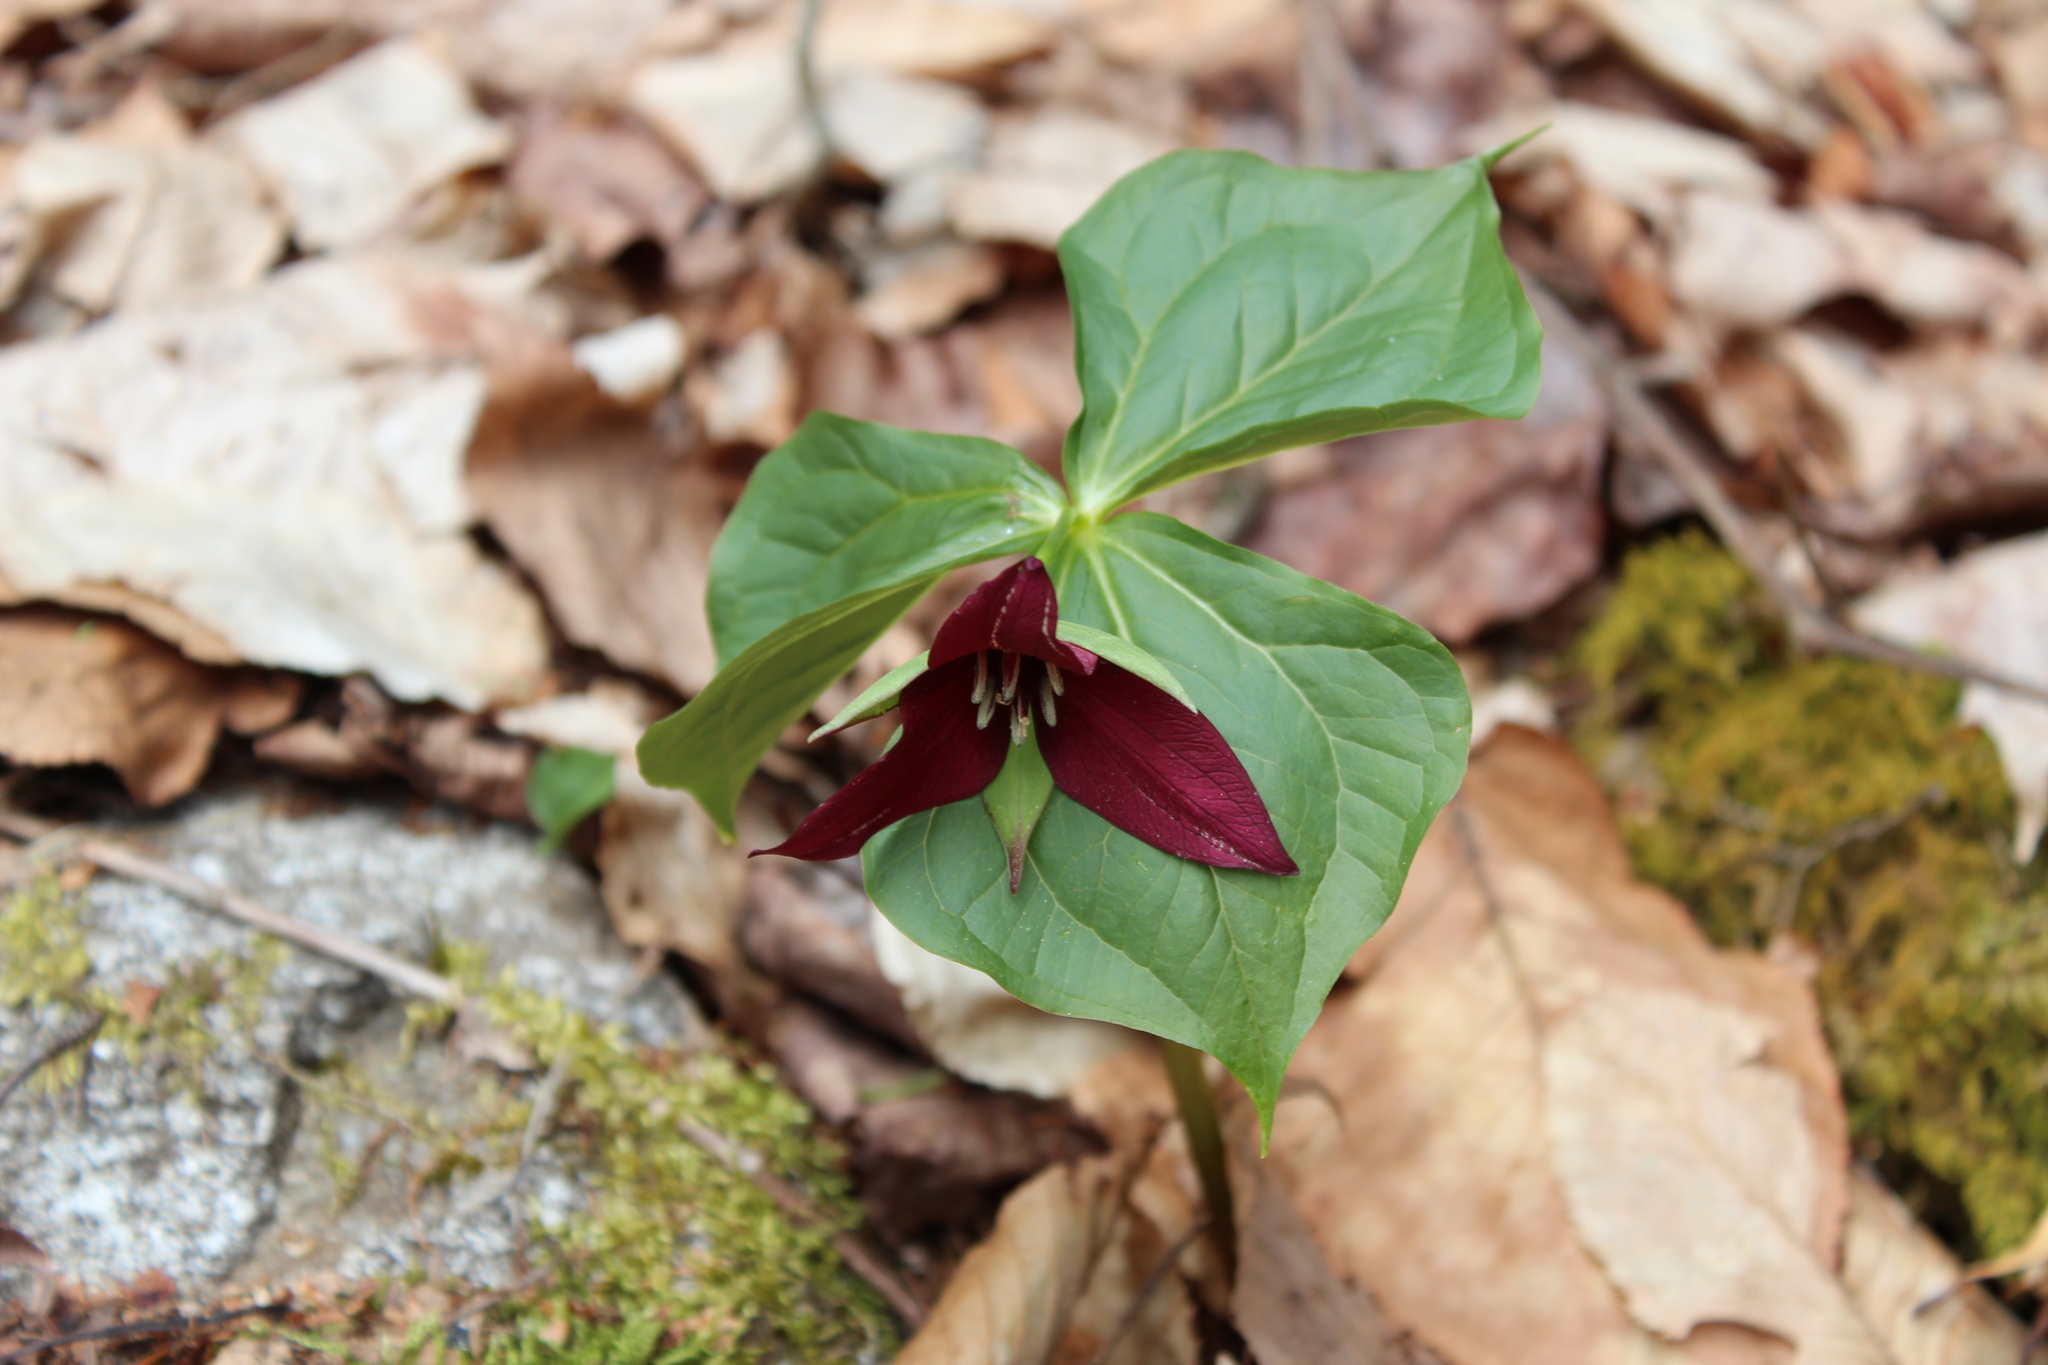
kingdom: Plantae
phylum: Tracheophyta
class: Liliopsida
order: Liliales
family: Melanthiaceae
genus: Trillium
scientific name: Trillium erectum
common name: Purple trillium
